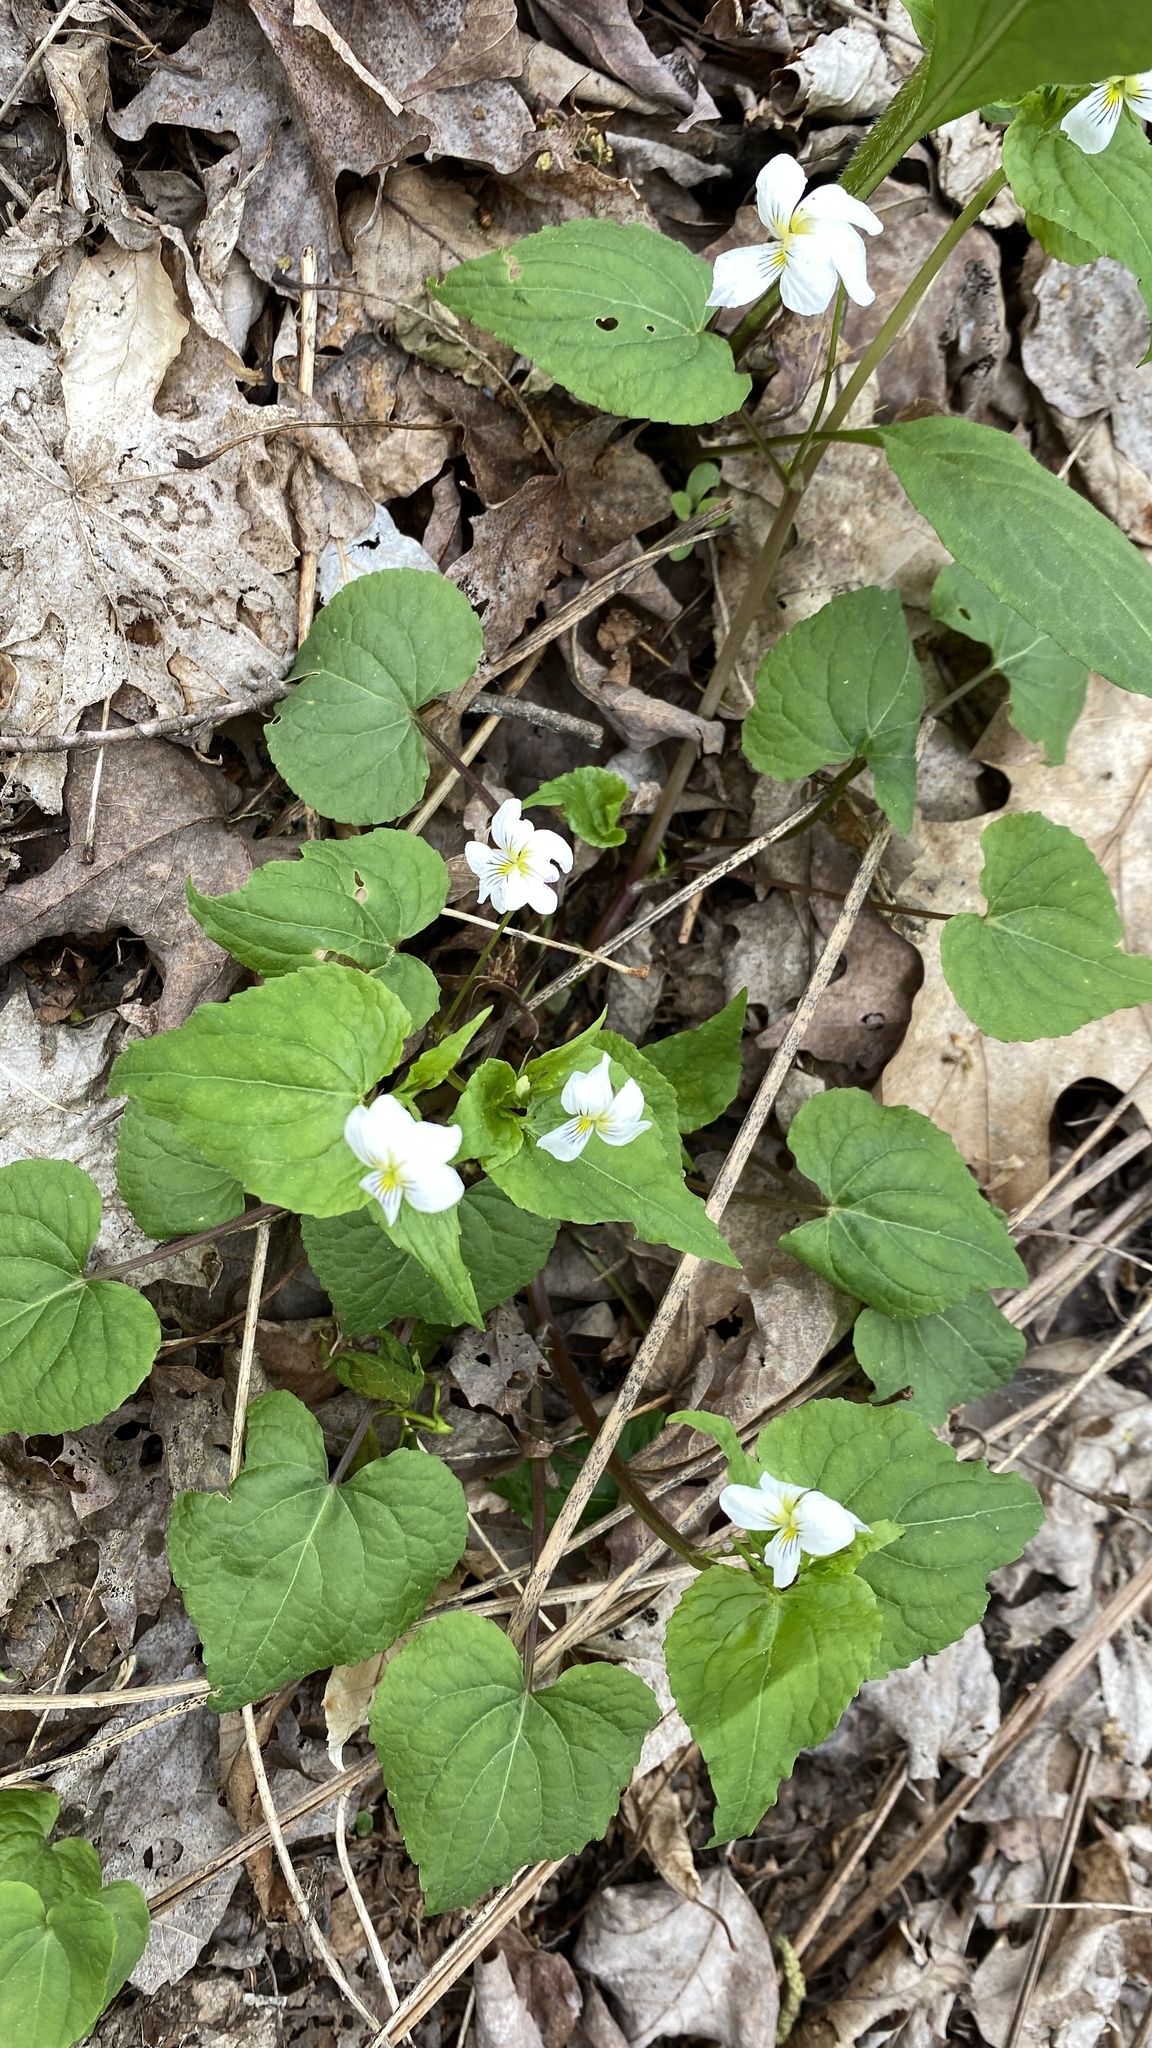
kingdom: Plantae
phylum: Tracheophyta
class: Magnoliopsida
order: Malpighiales
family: Violaceae
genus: Viola
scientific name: Viola canadensis
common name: Canada violet
